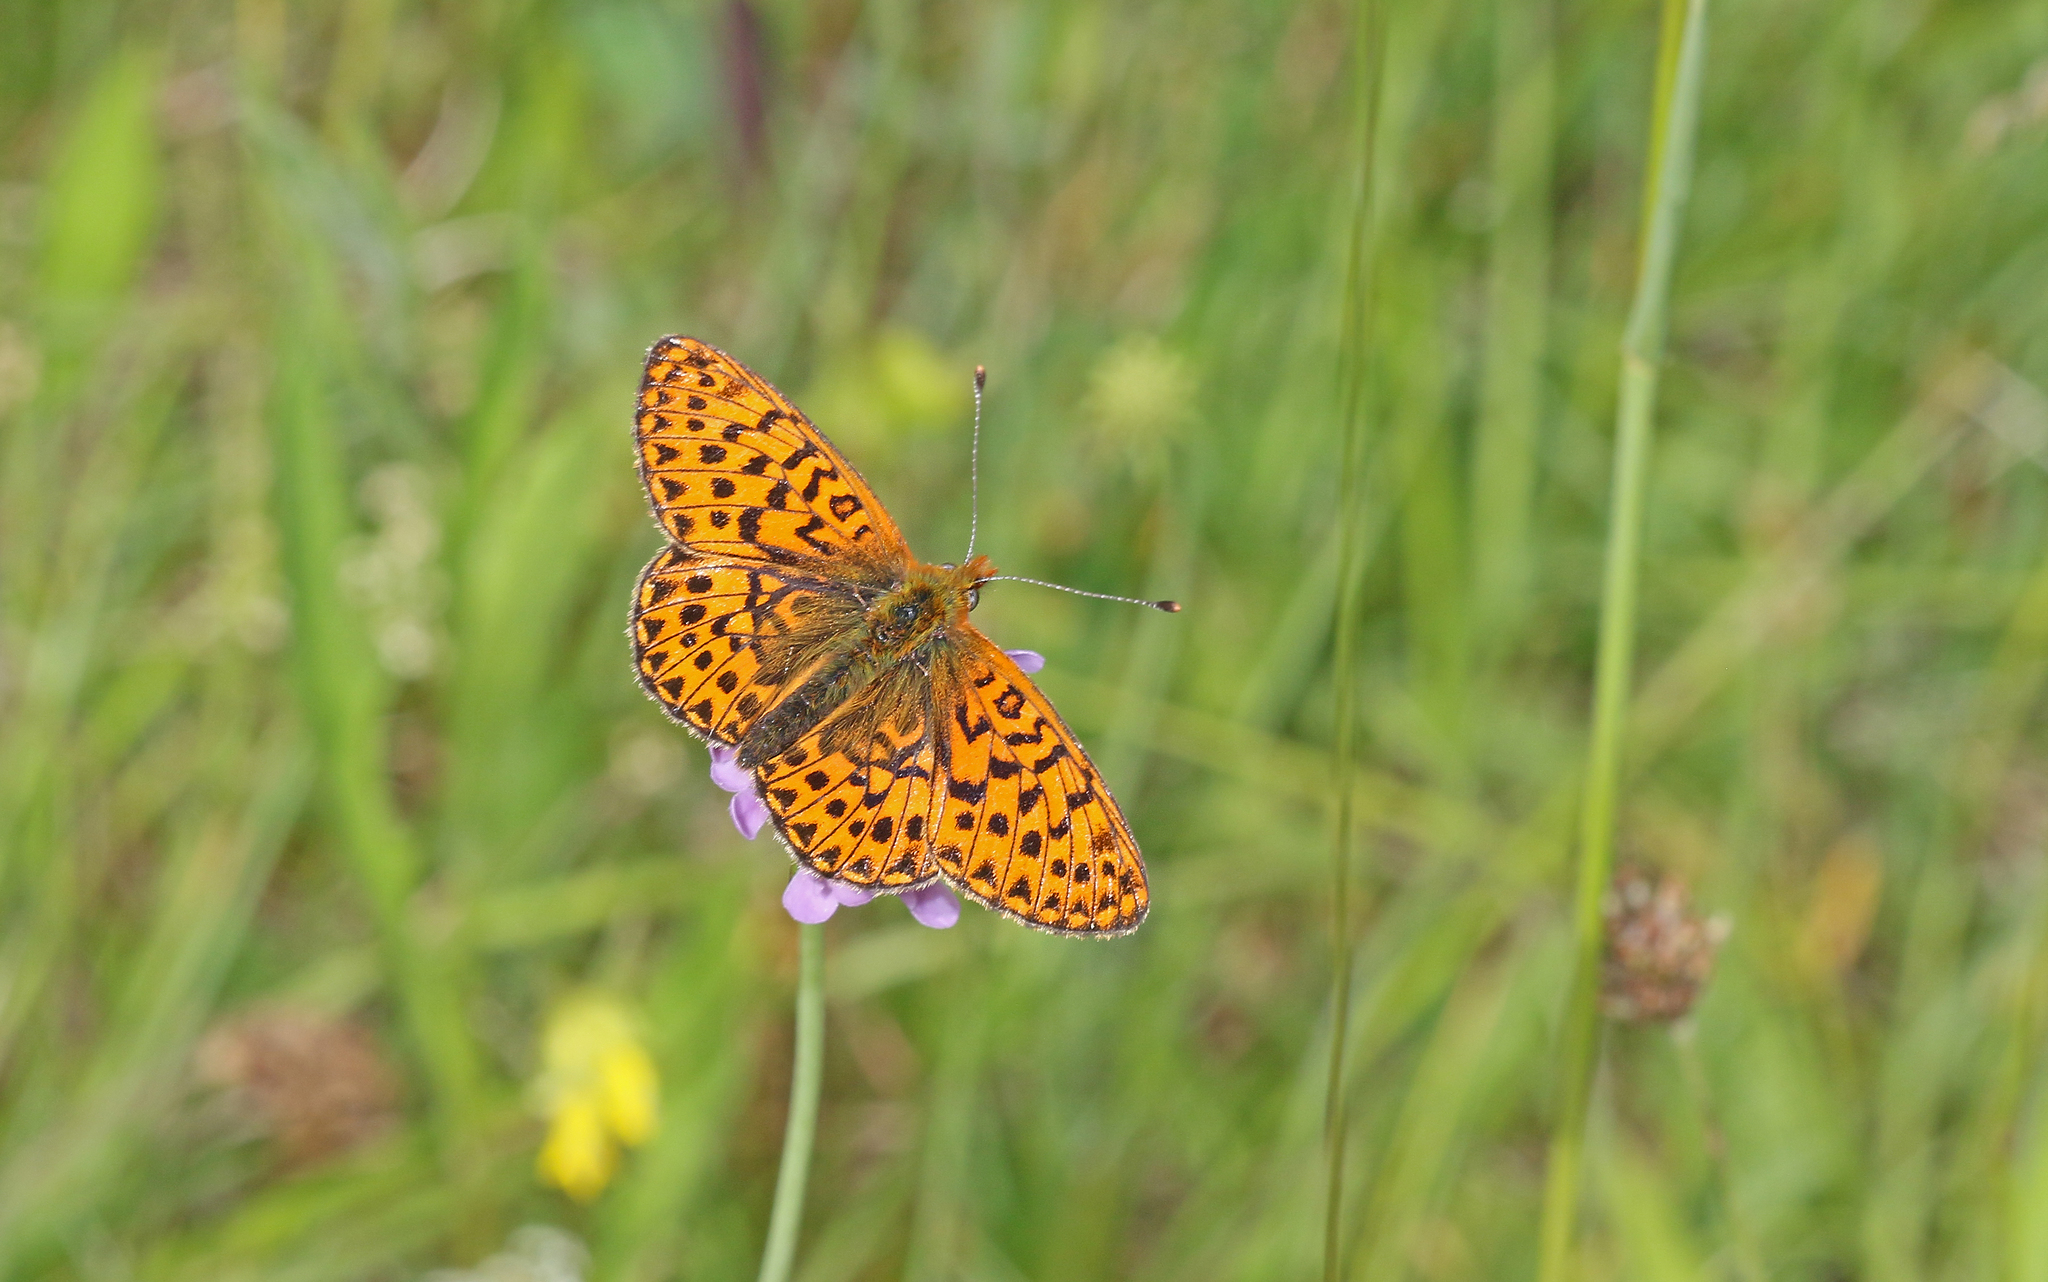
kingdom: Animalia
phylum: Arthropoda
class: Insecta
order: Lepidoptera
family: Nymphalidae
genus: Clossiana
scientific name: Clossiana euphrosyne
